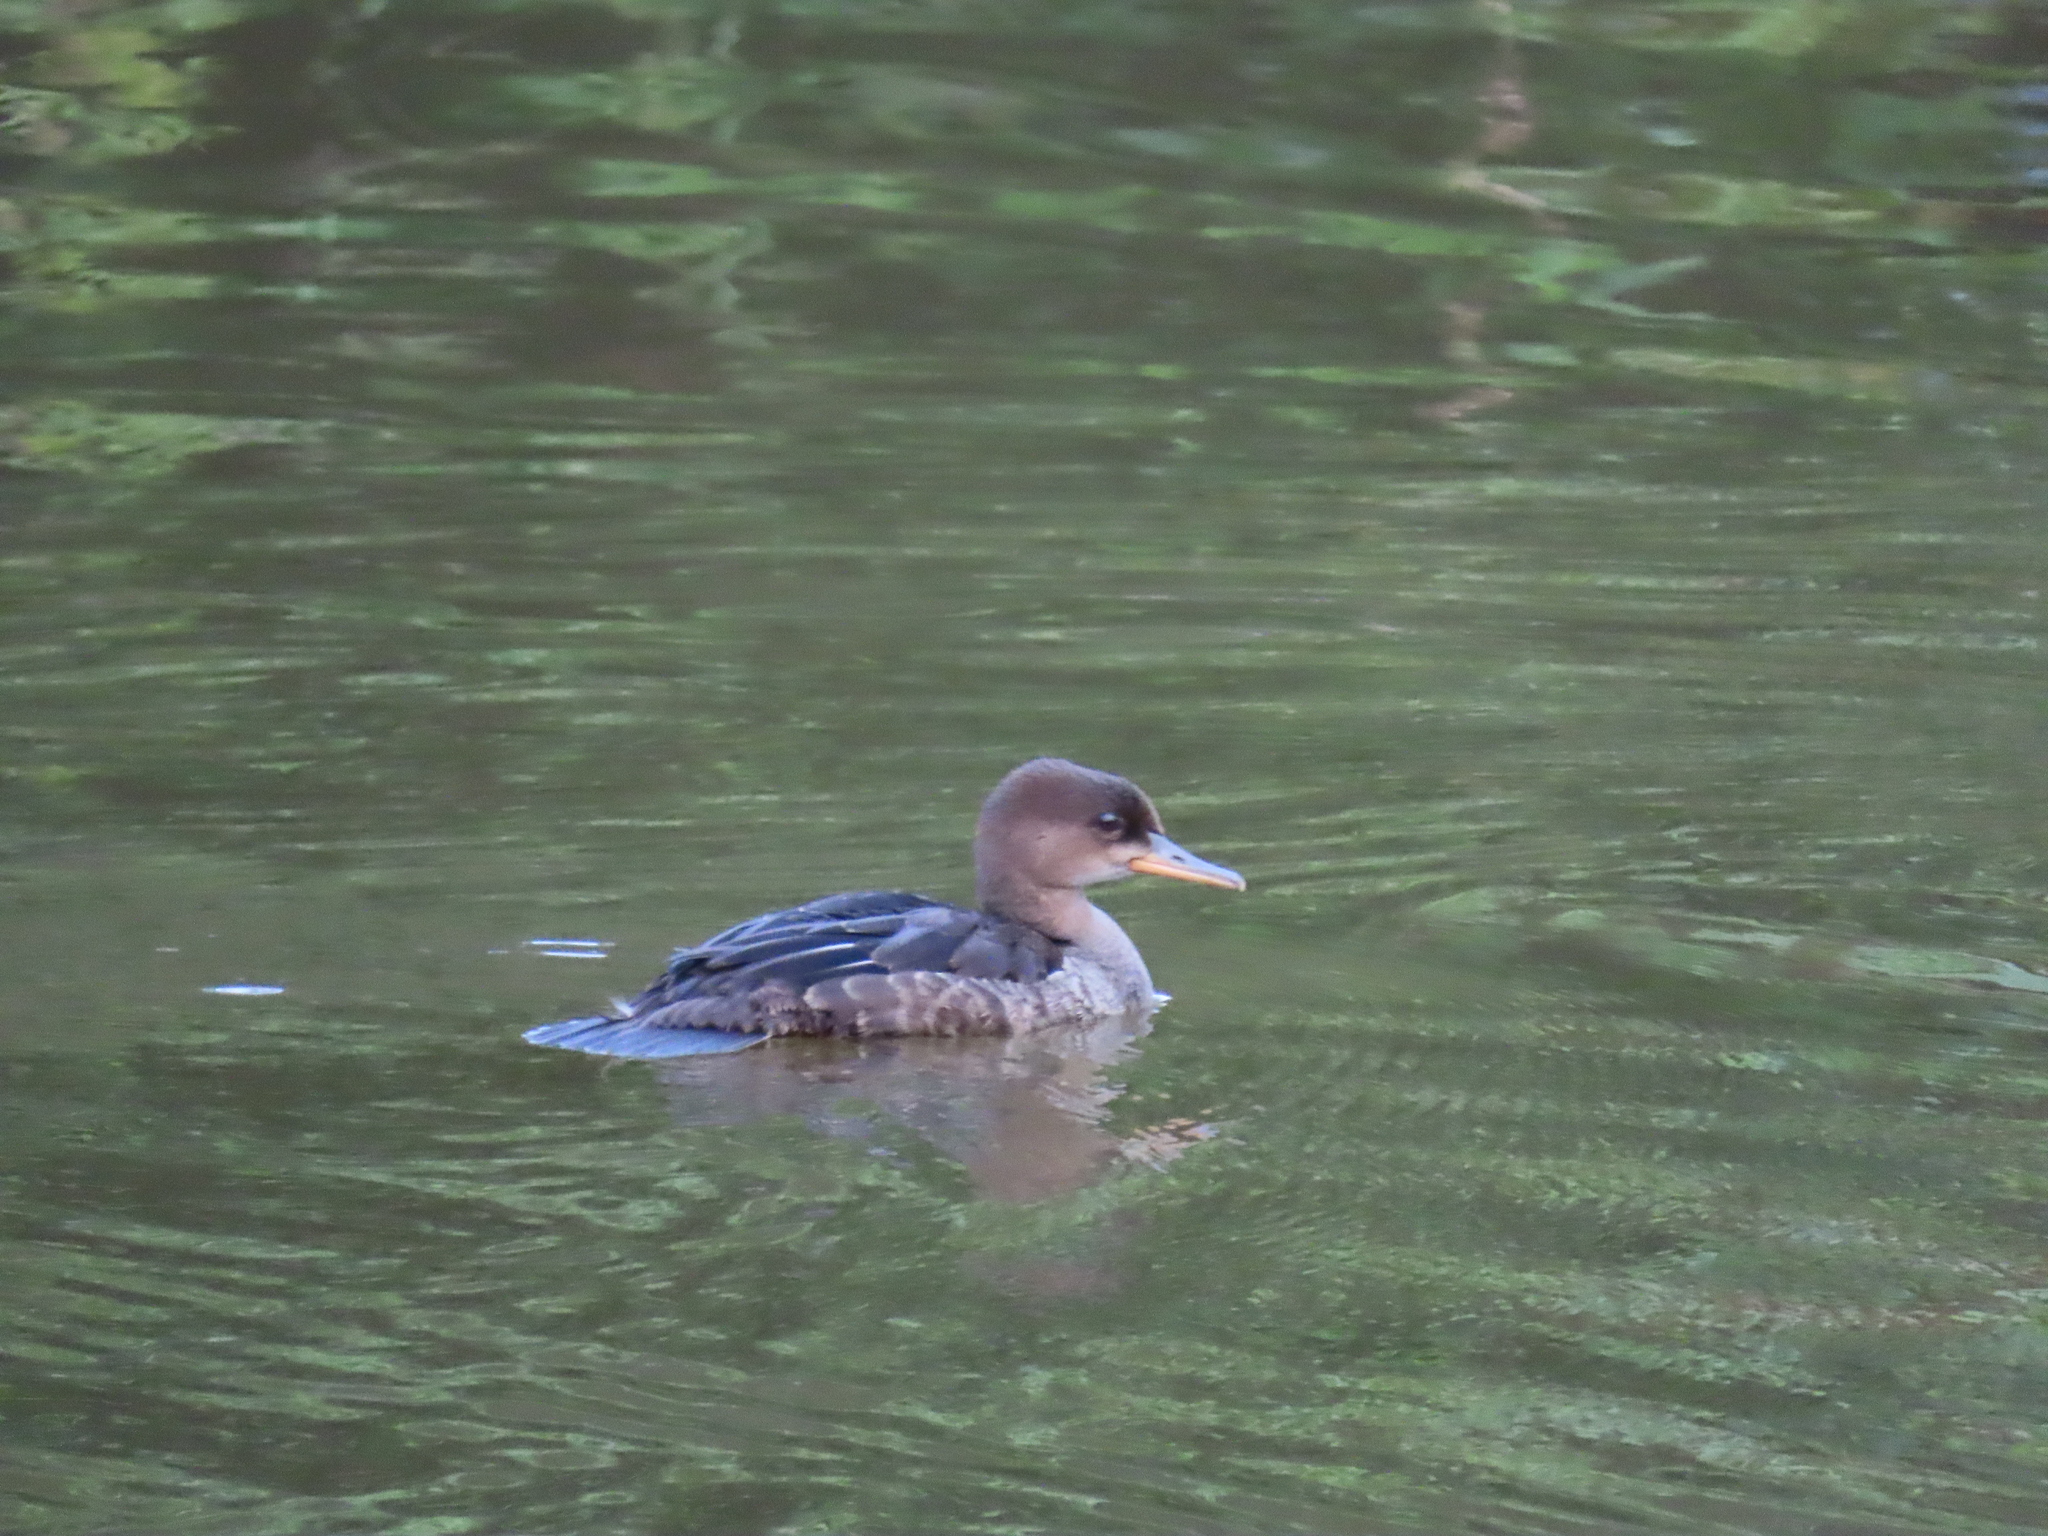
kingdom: Animalia
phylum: Chordata
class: Aves
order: Anseriformes
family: Anatidae
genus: Lophodytes
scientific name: Lophodytes cucullatus
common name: Hooded merganser
